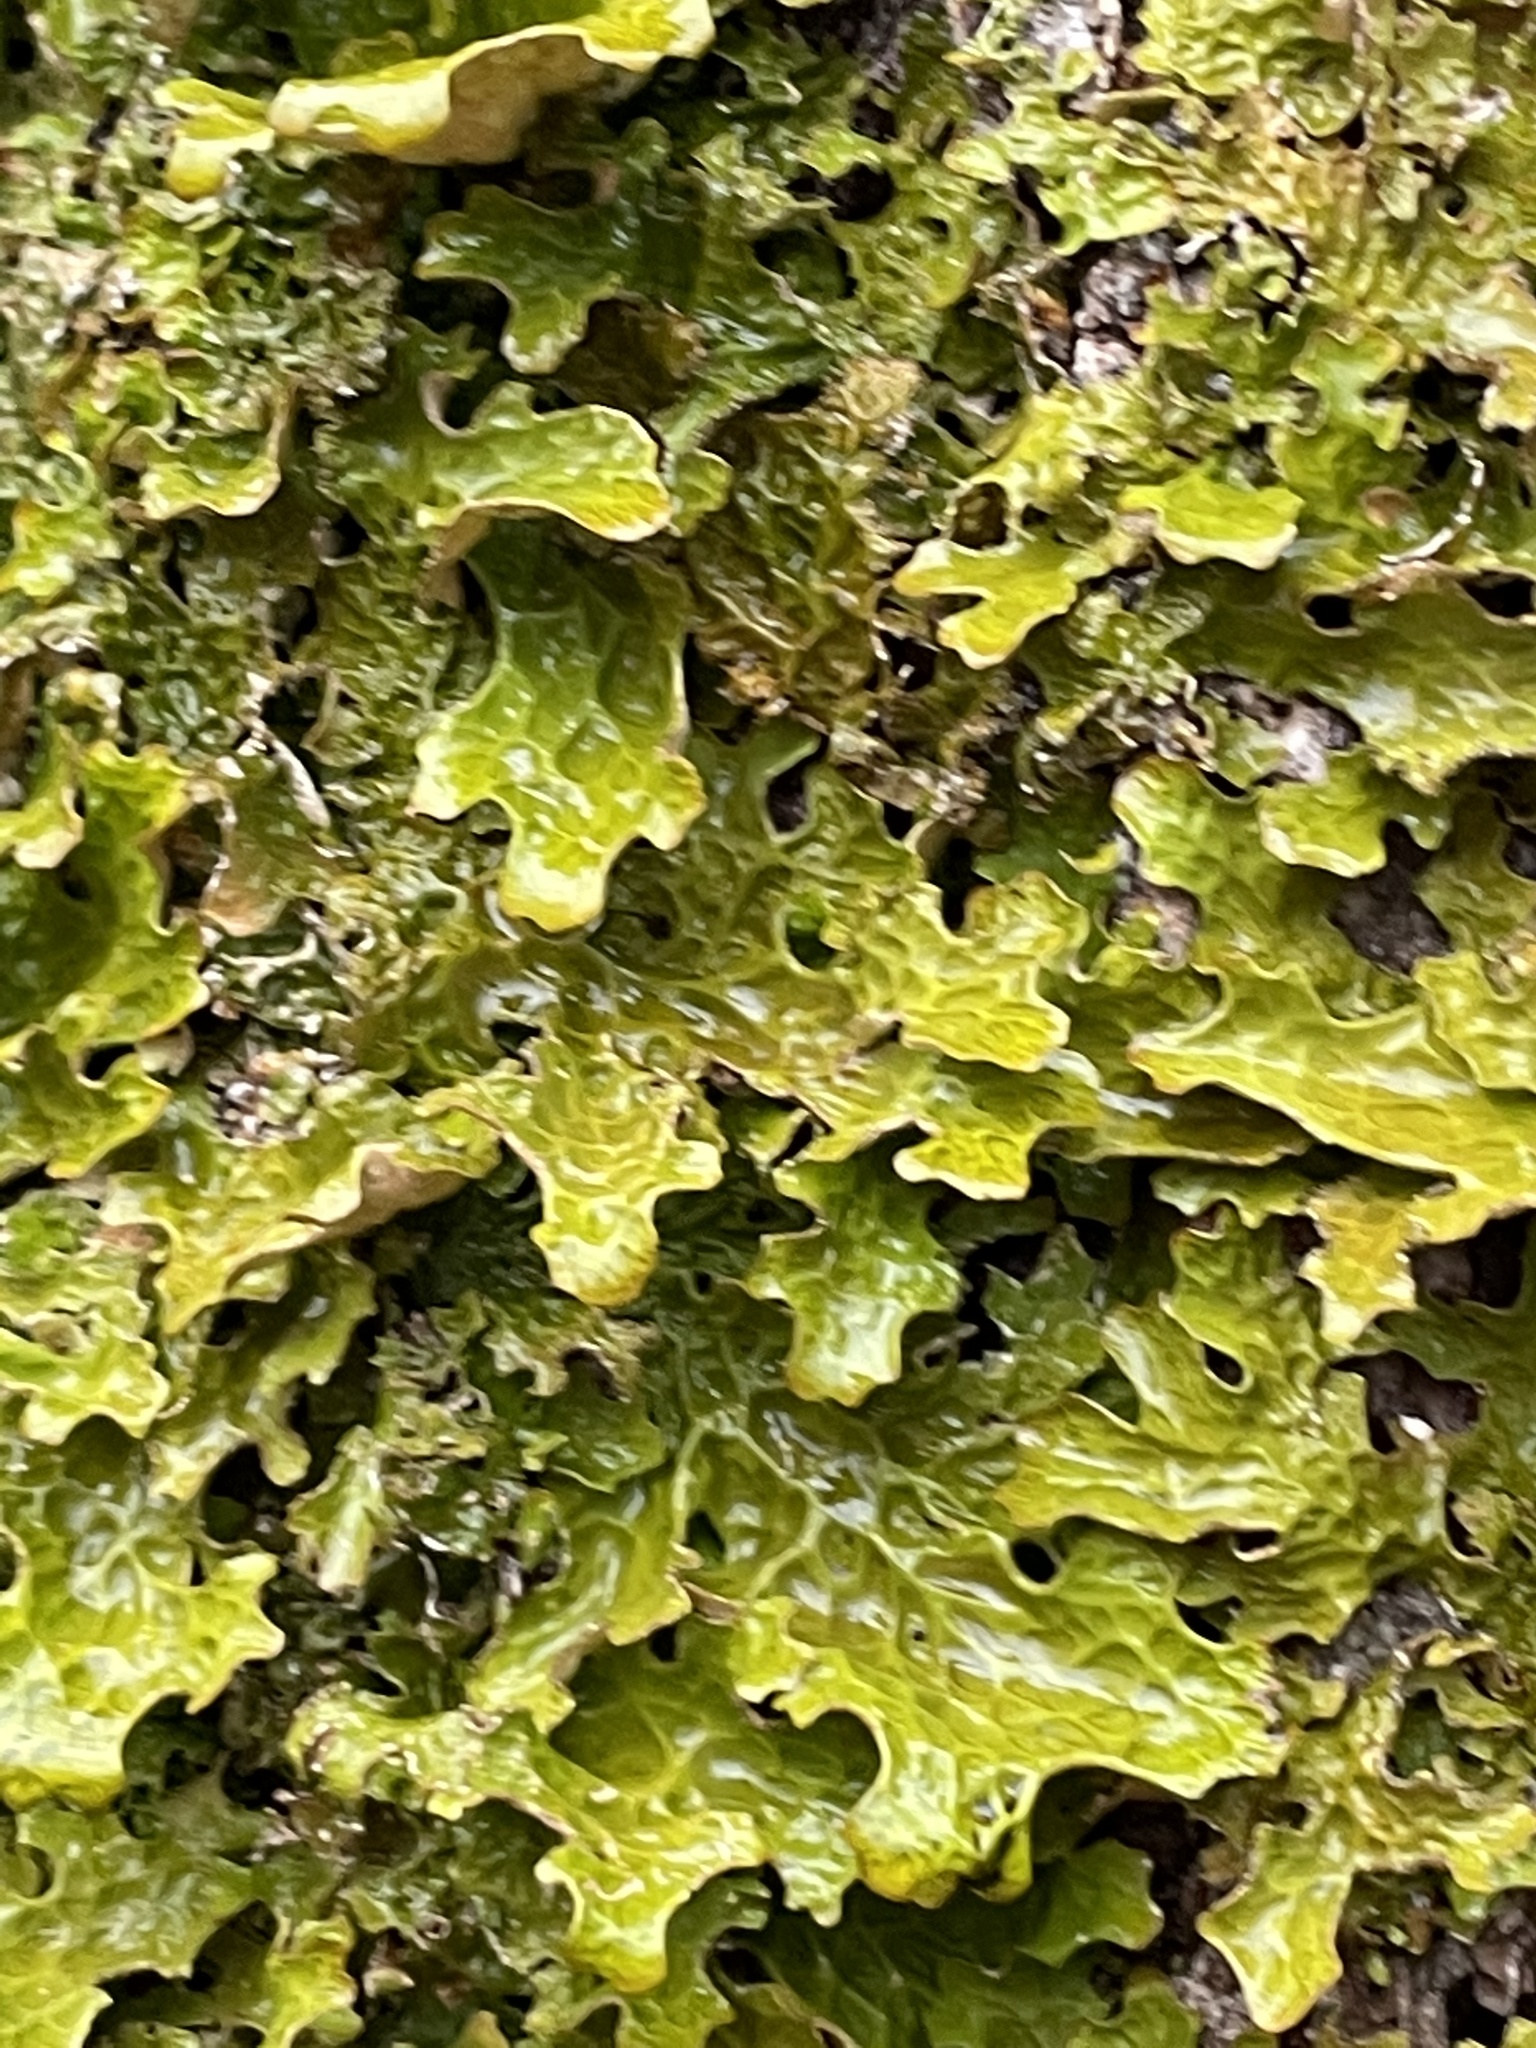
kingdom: Fungi
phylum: Ascomycota
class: Lecanoromycetes
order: Peltigerales
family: Lobariaceae
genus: Lobaria
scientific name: Lobaria pulmonaria
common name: Lungwort
